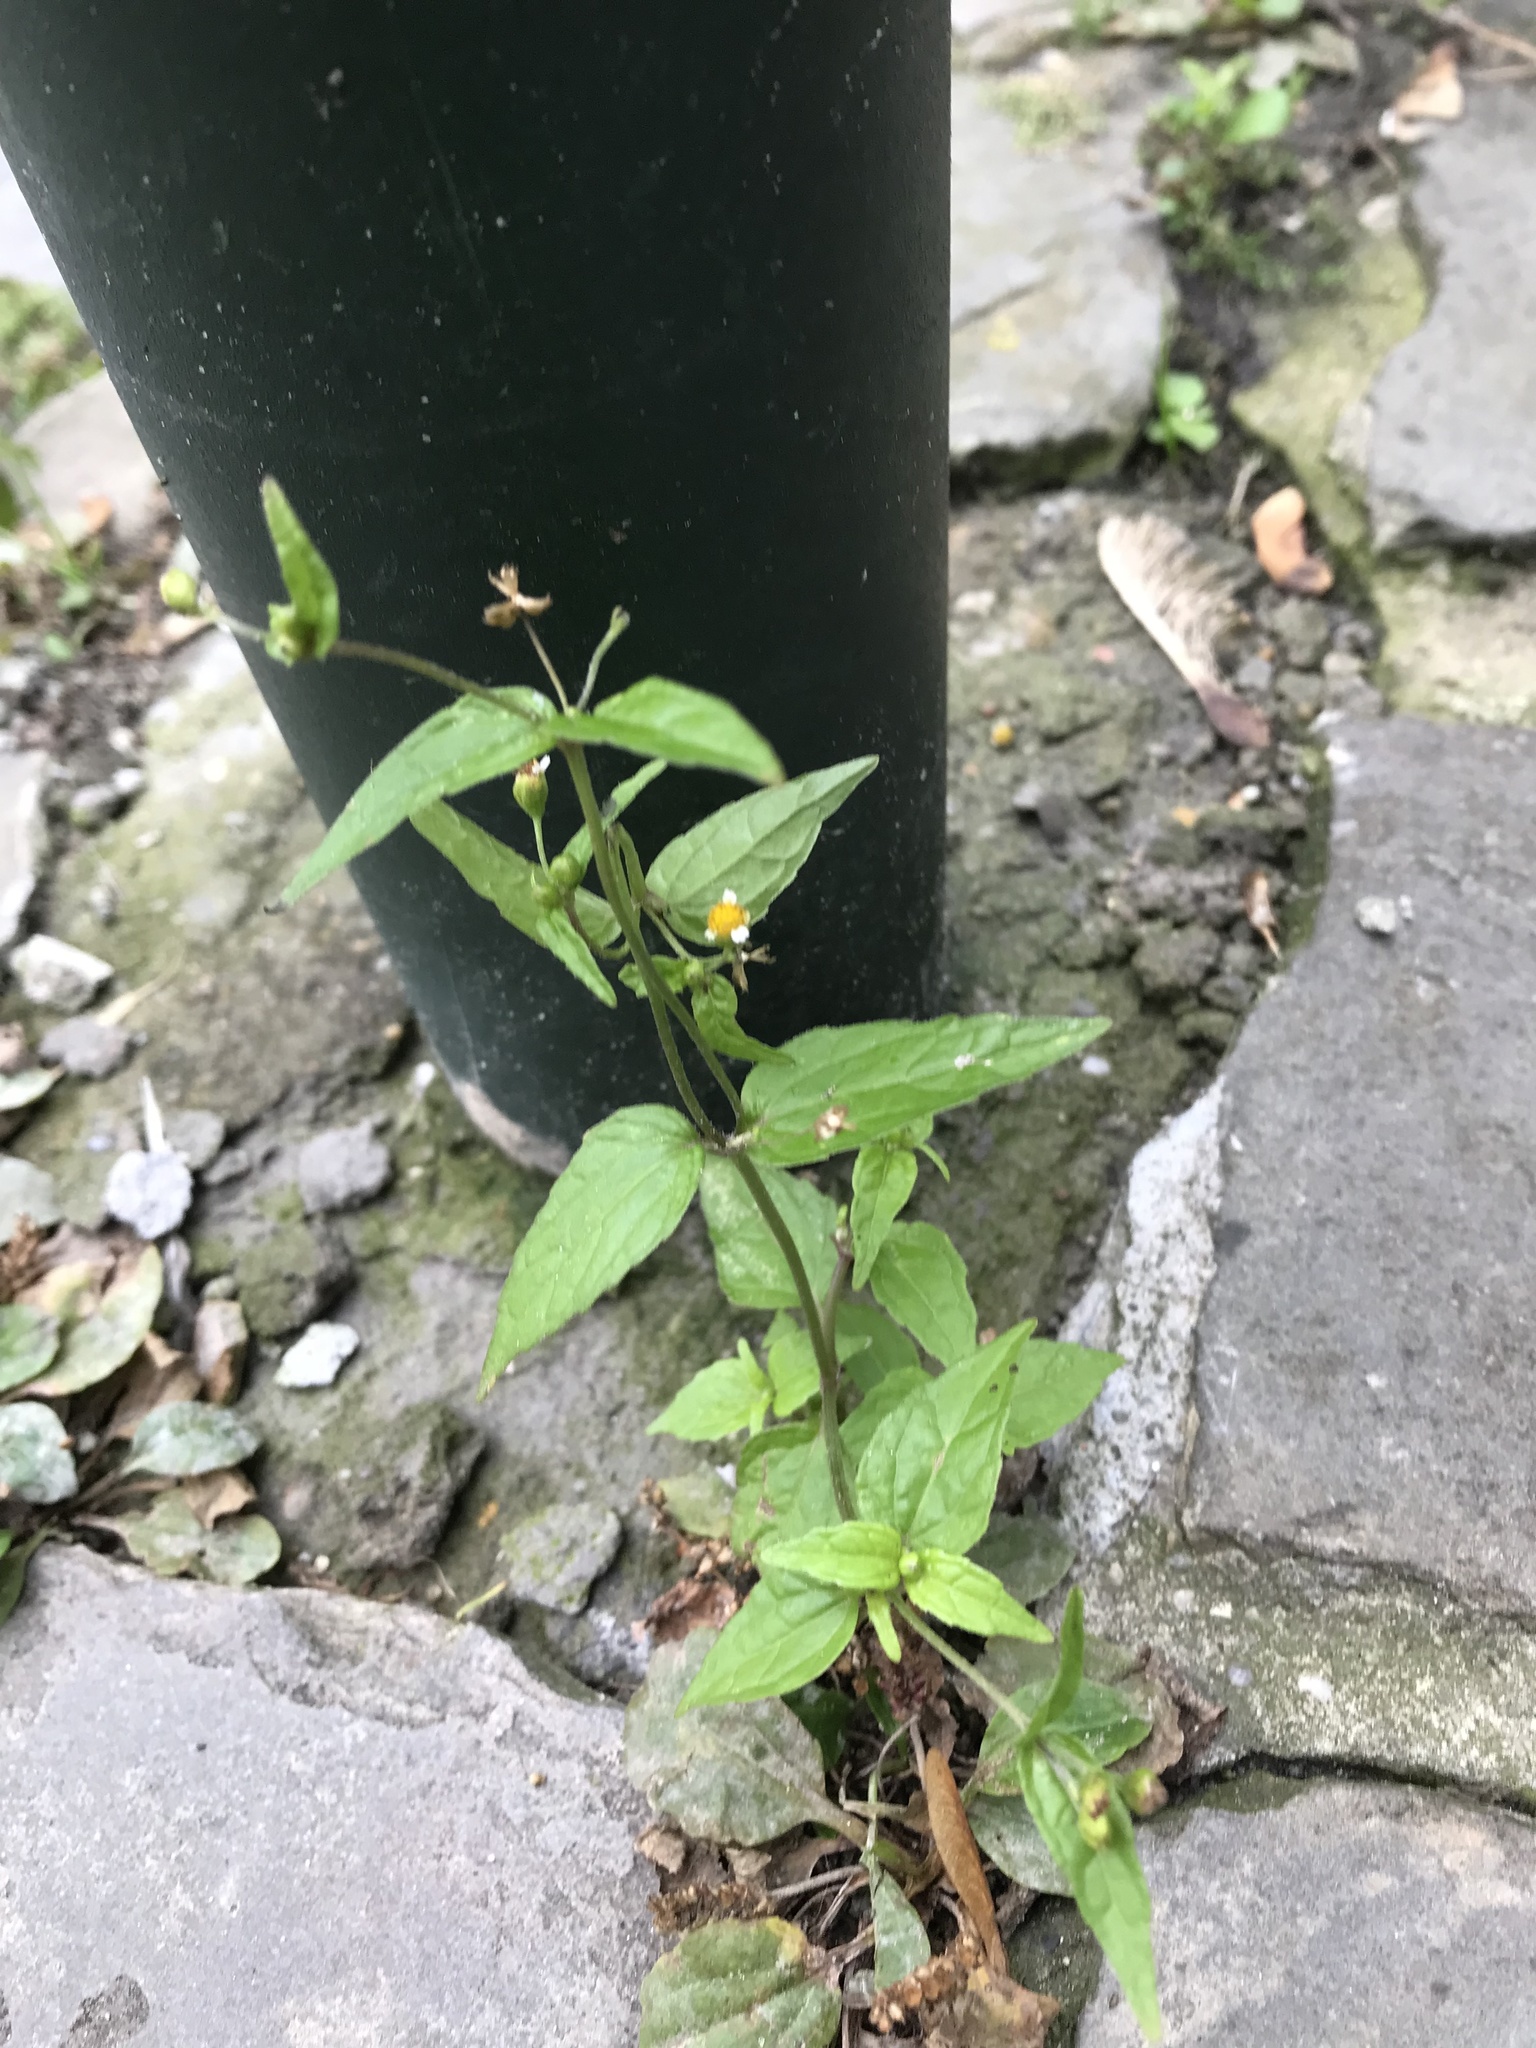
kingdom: Plantae
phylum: Tracheophyta
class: Magnoliopsida
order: Asterales
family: Asteraceae
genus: Galinsoga
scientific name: Galinsoga parviflora
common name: Gallant soldier
